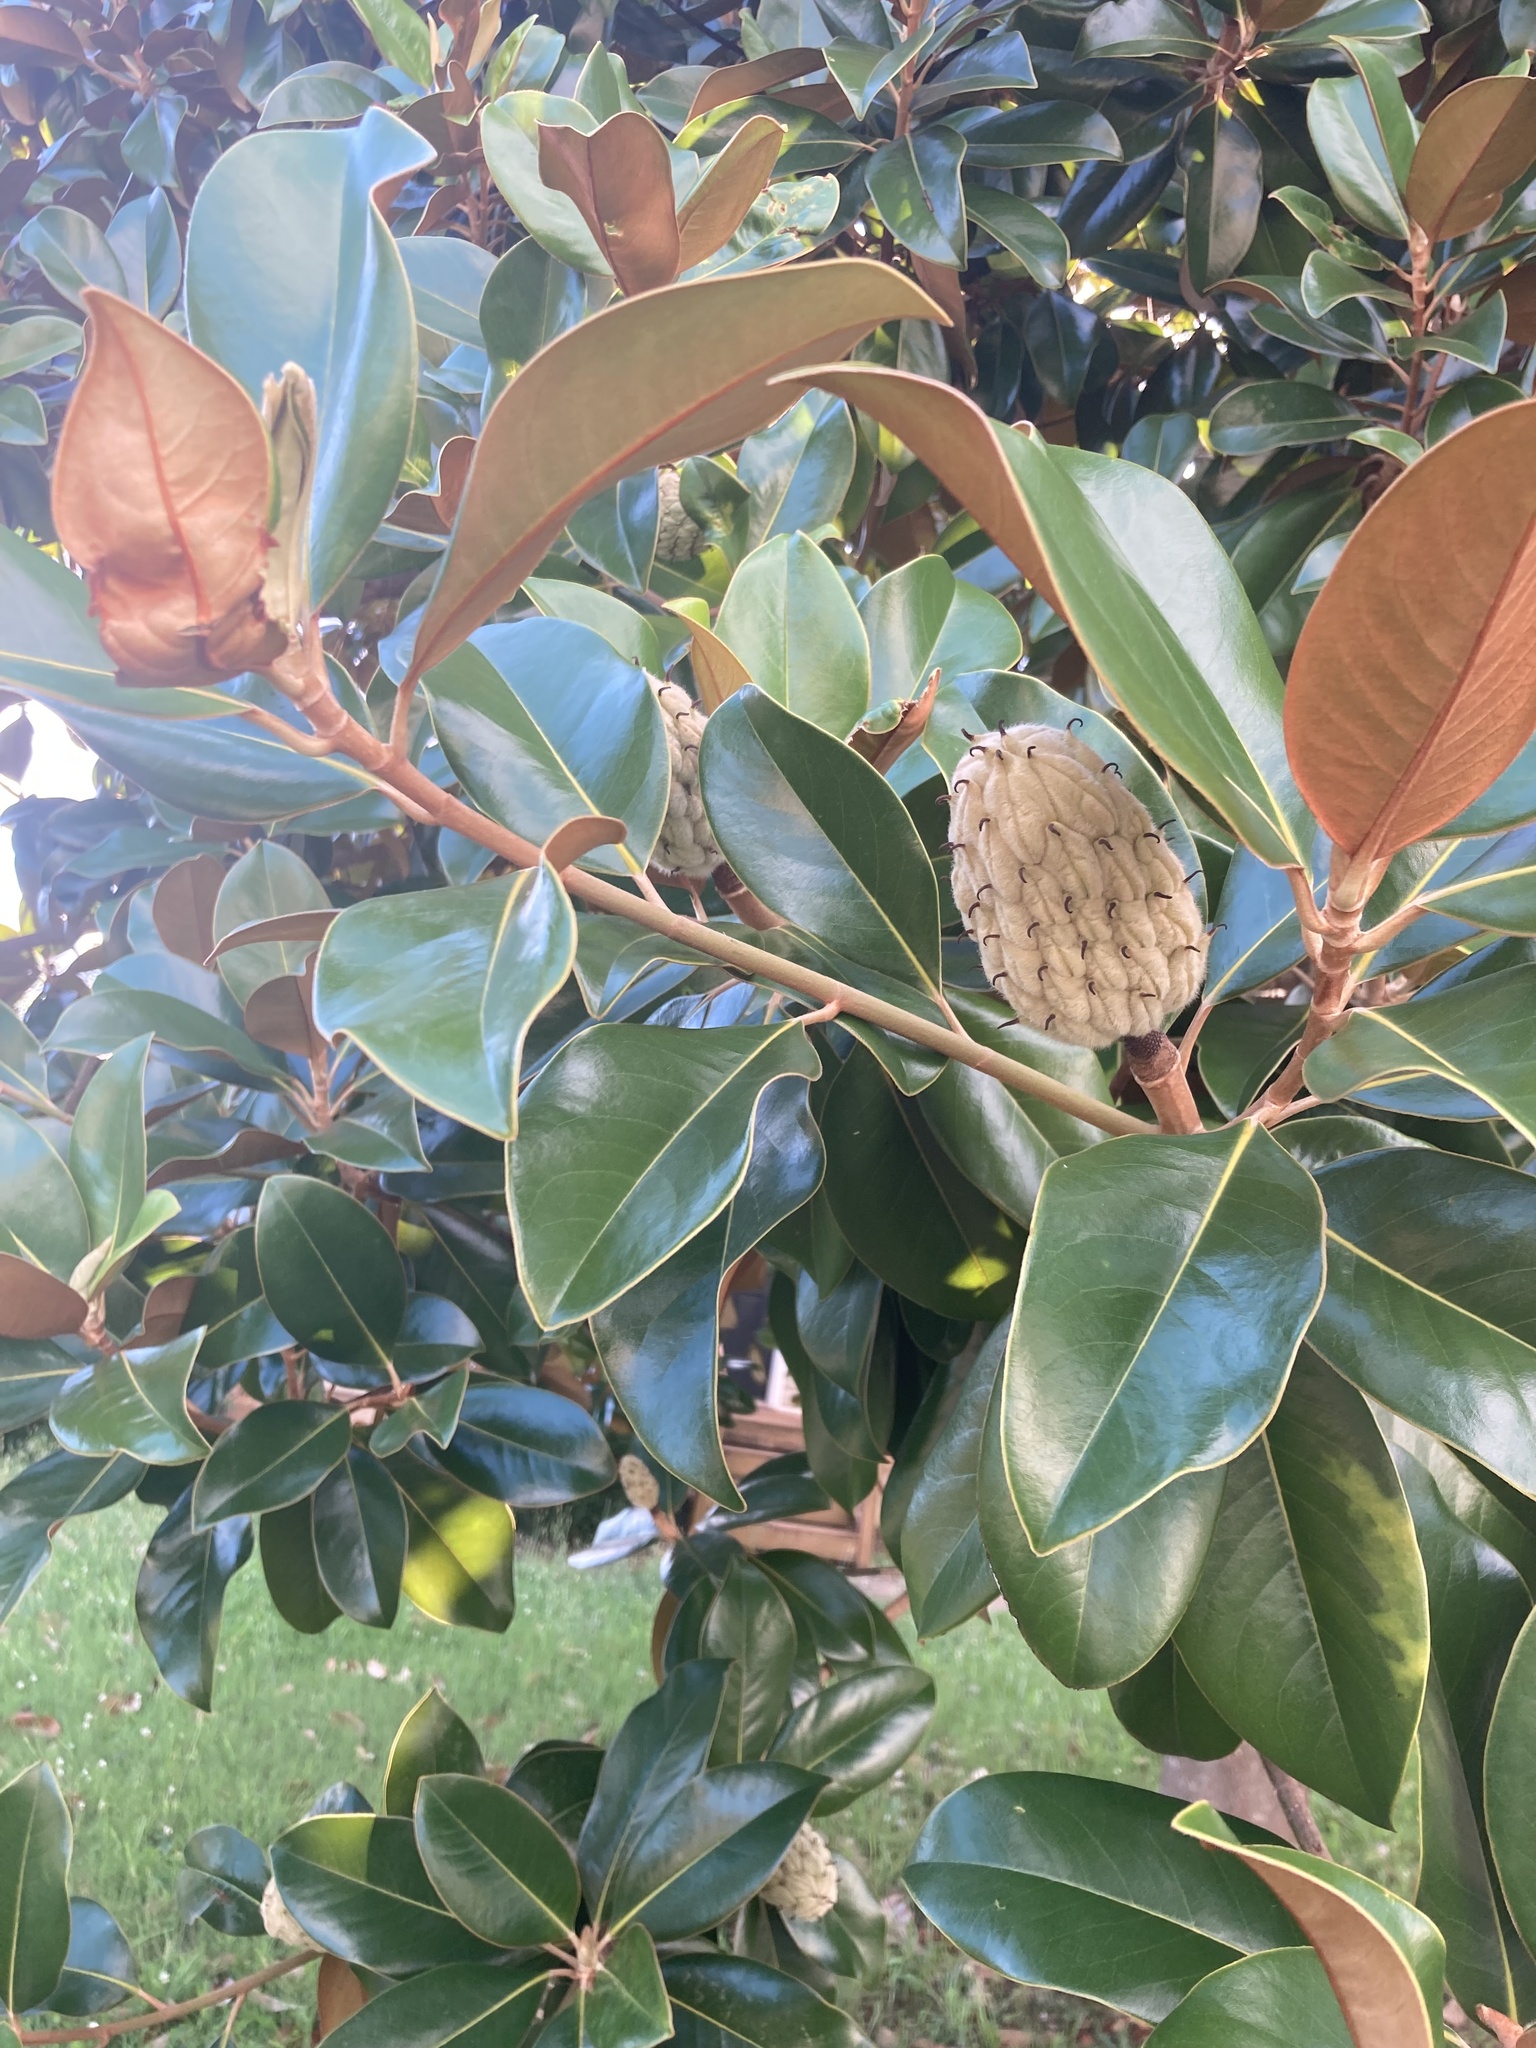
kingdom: Plantae
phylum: Tracheophyta
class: Magnoliopsida
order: Magnoliales
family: Magnoliaceae
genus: Magnolia
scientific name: Magnolia grandiflora
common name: Southern magnolia
